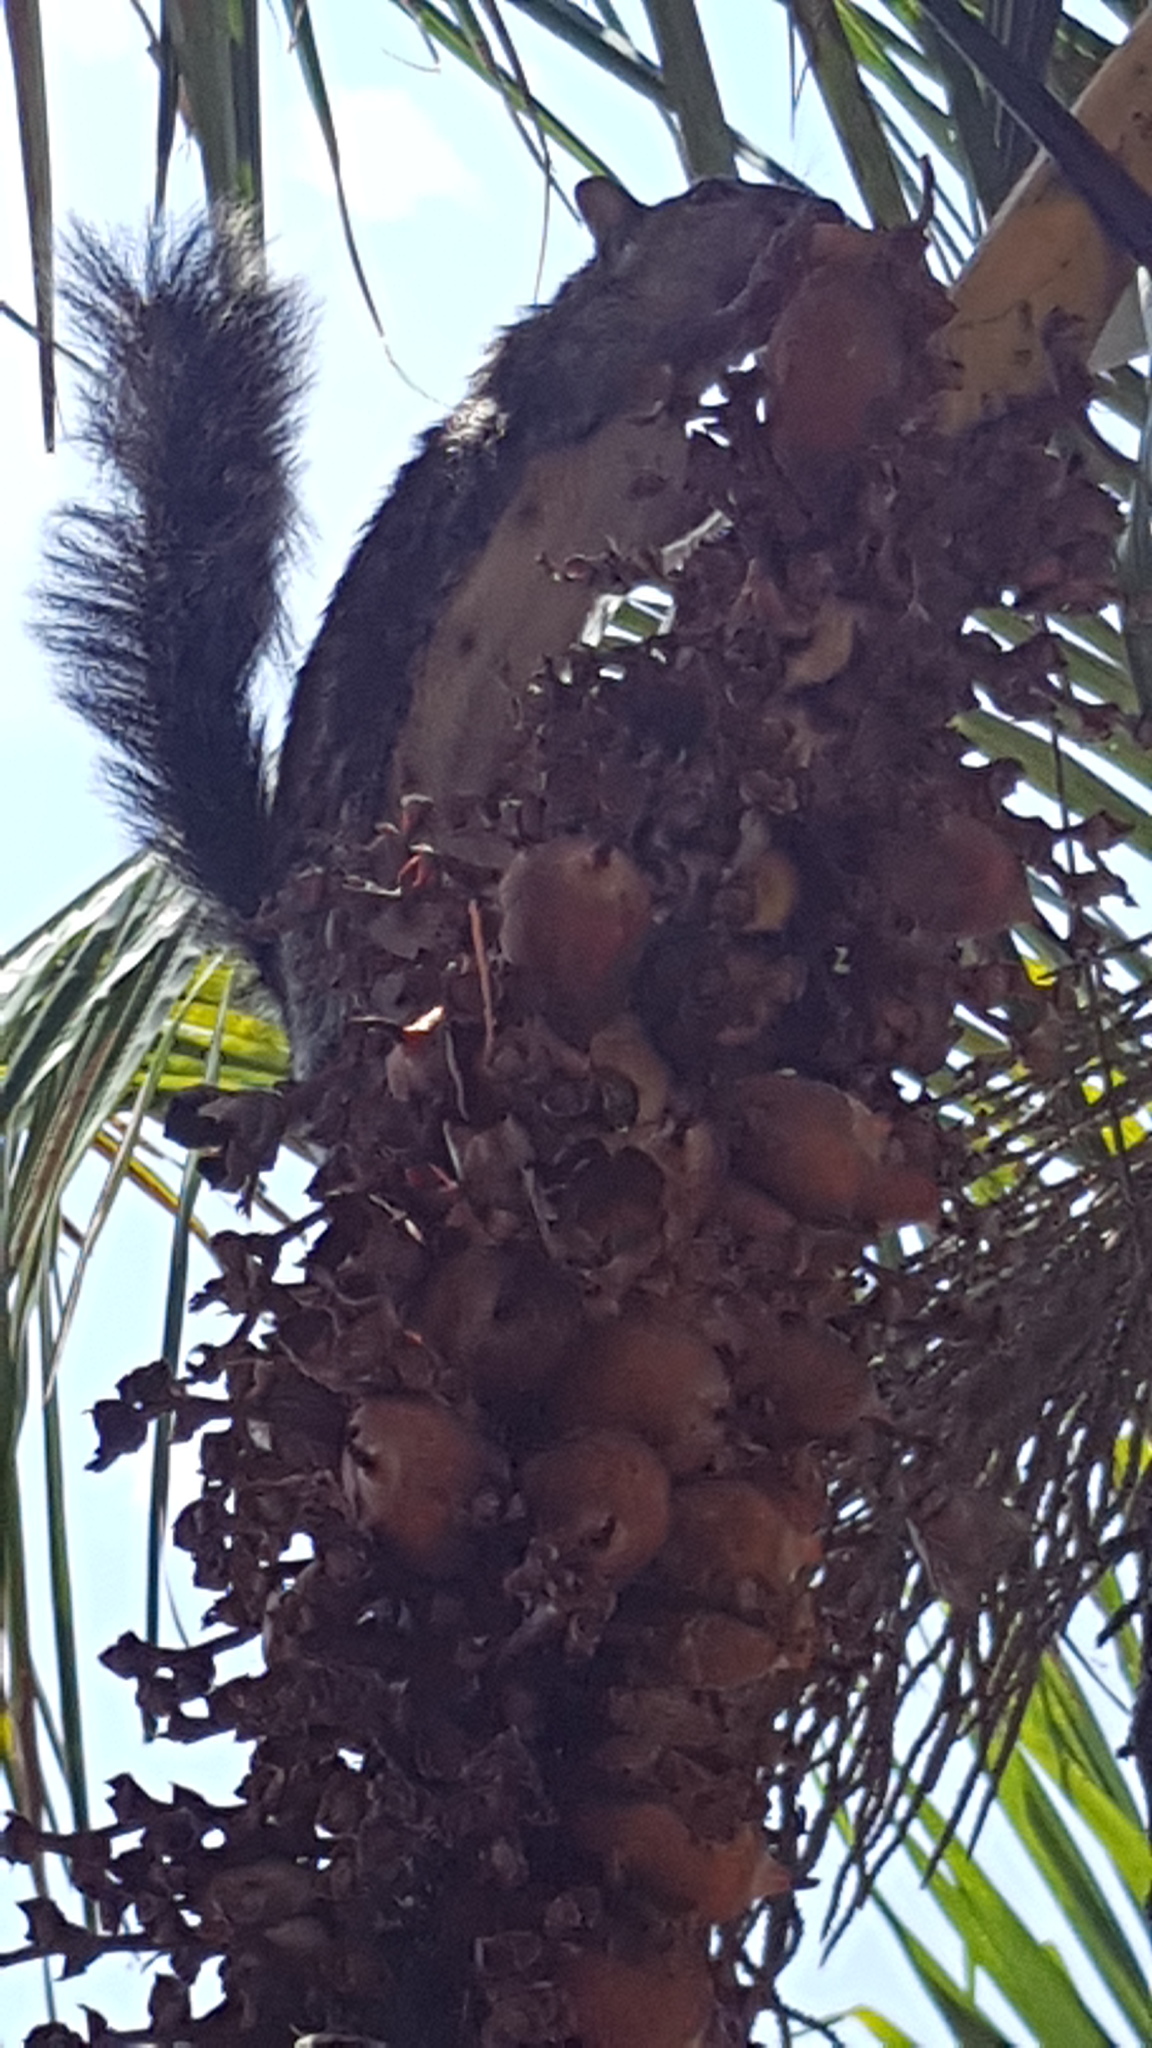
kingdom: Animalia
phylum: Chordata
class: Mammalia
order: Rodentia
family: Sciuridae
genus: Sciurus
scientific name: Sciurus colliaei
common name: Collie's squirrel
